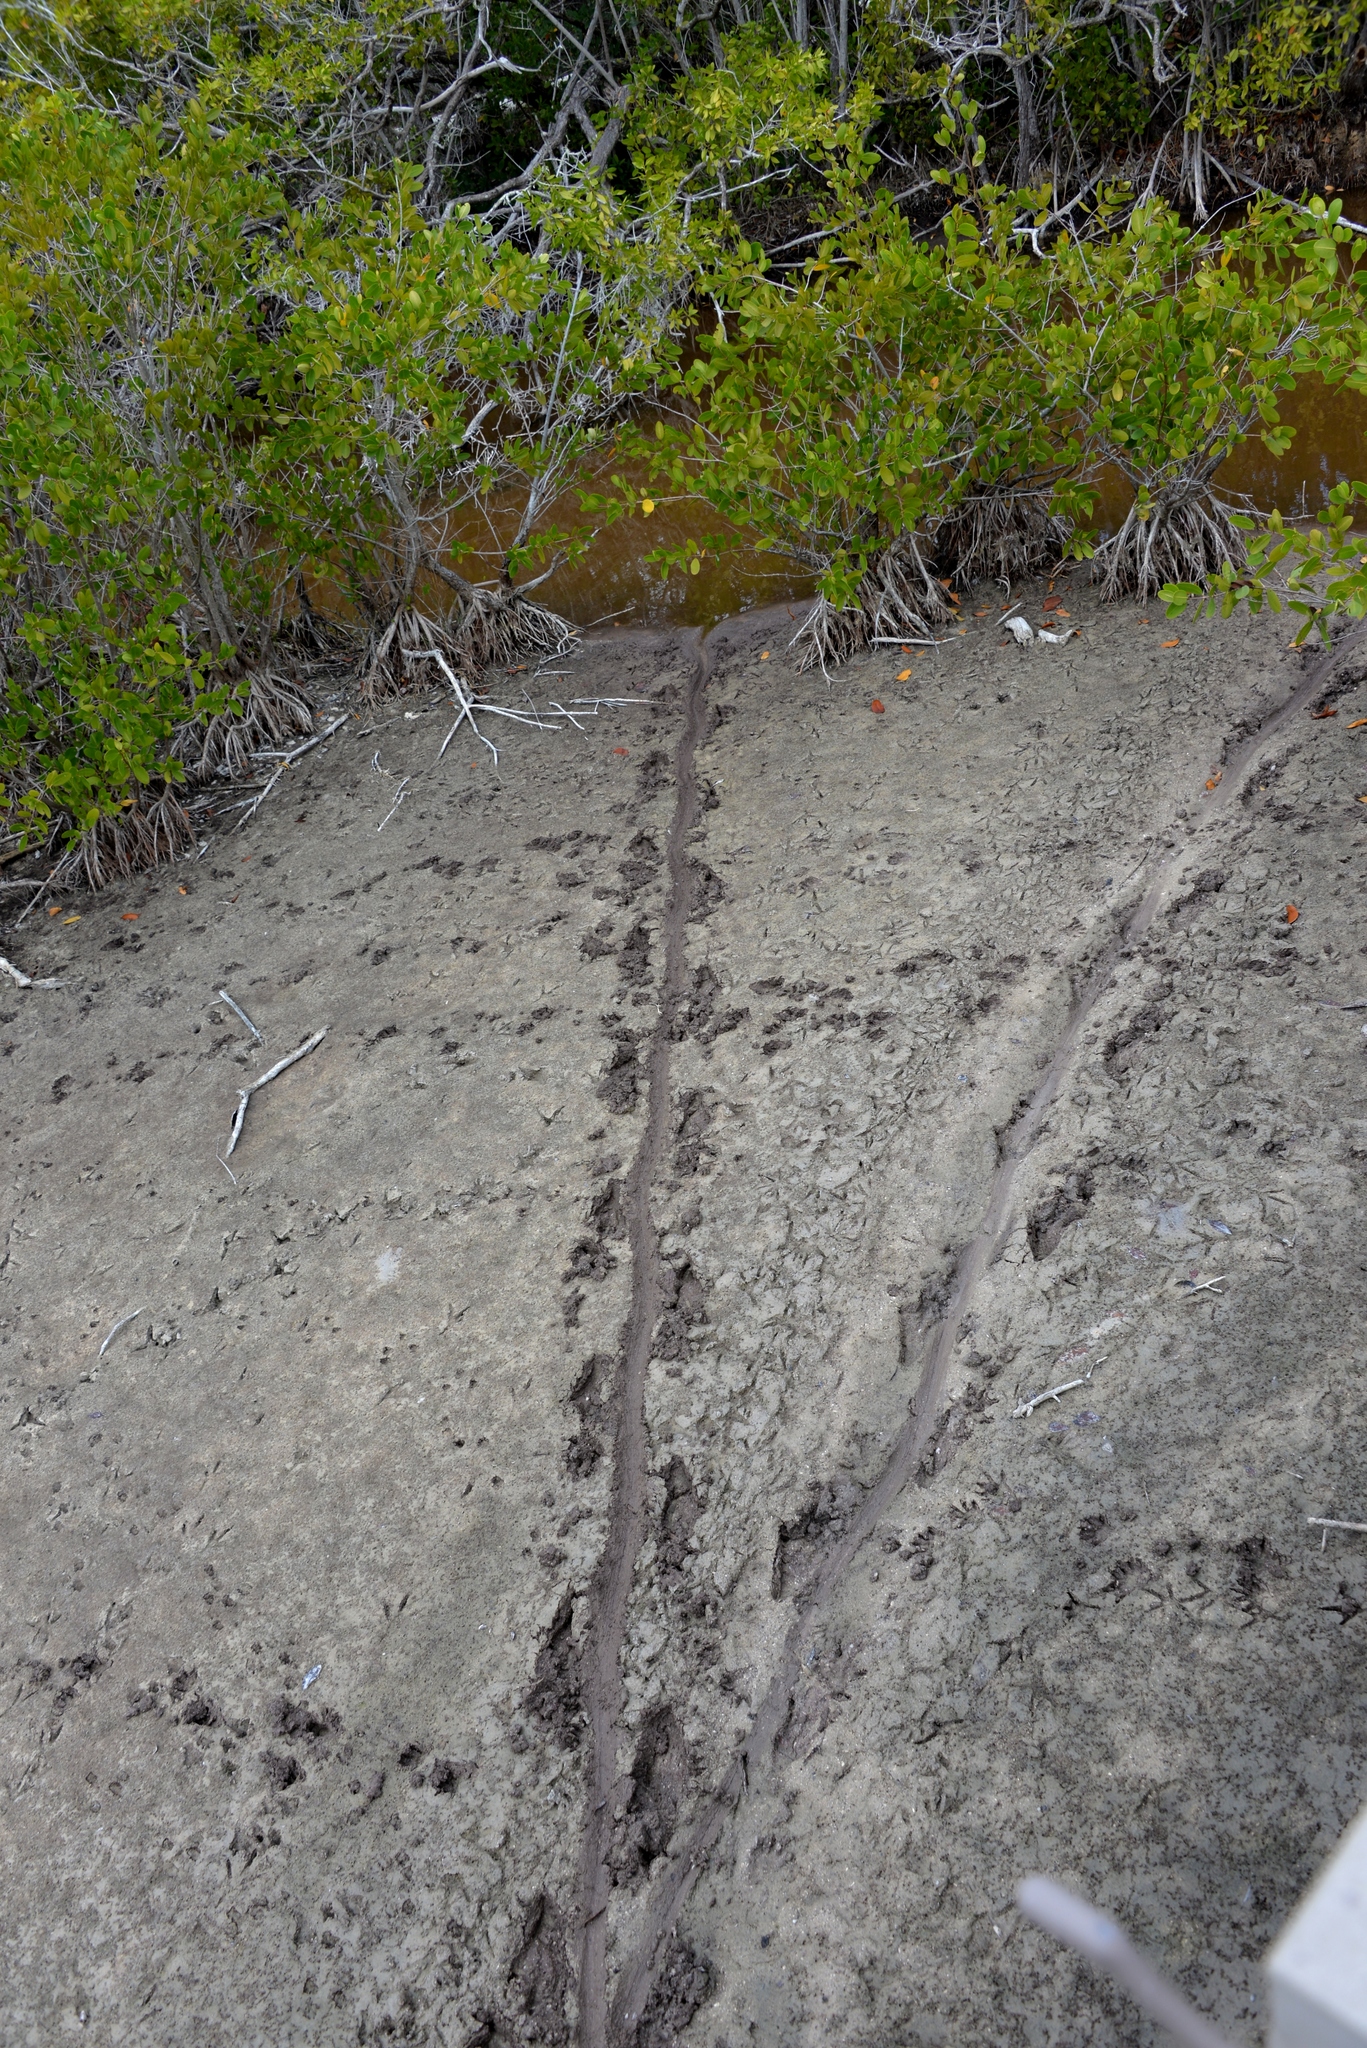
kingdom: Animalia
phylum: Chordata
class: Crocodylia
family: Alligatoridae
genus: Alligator
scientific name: Alligator mississippiensis
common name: American alligator
